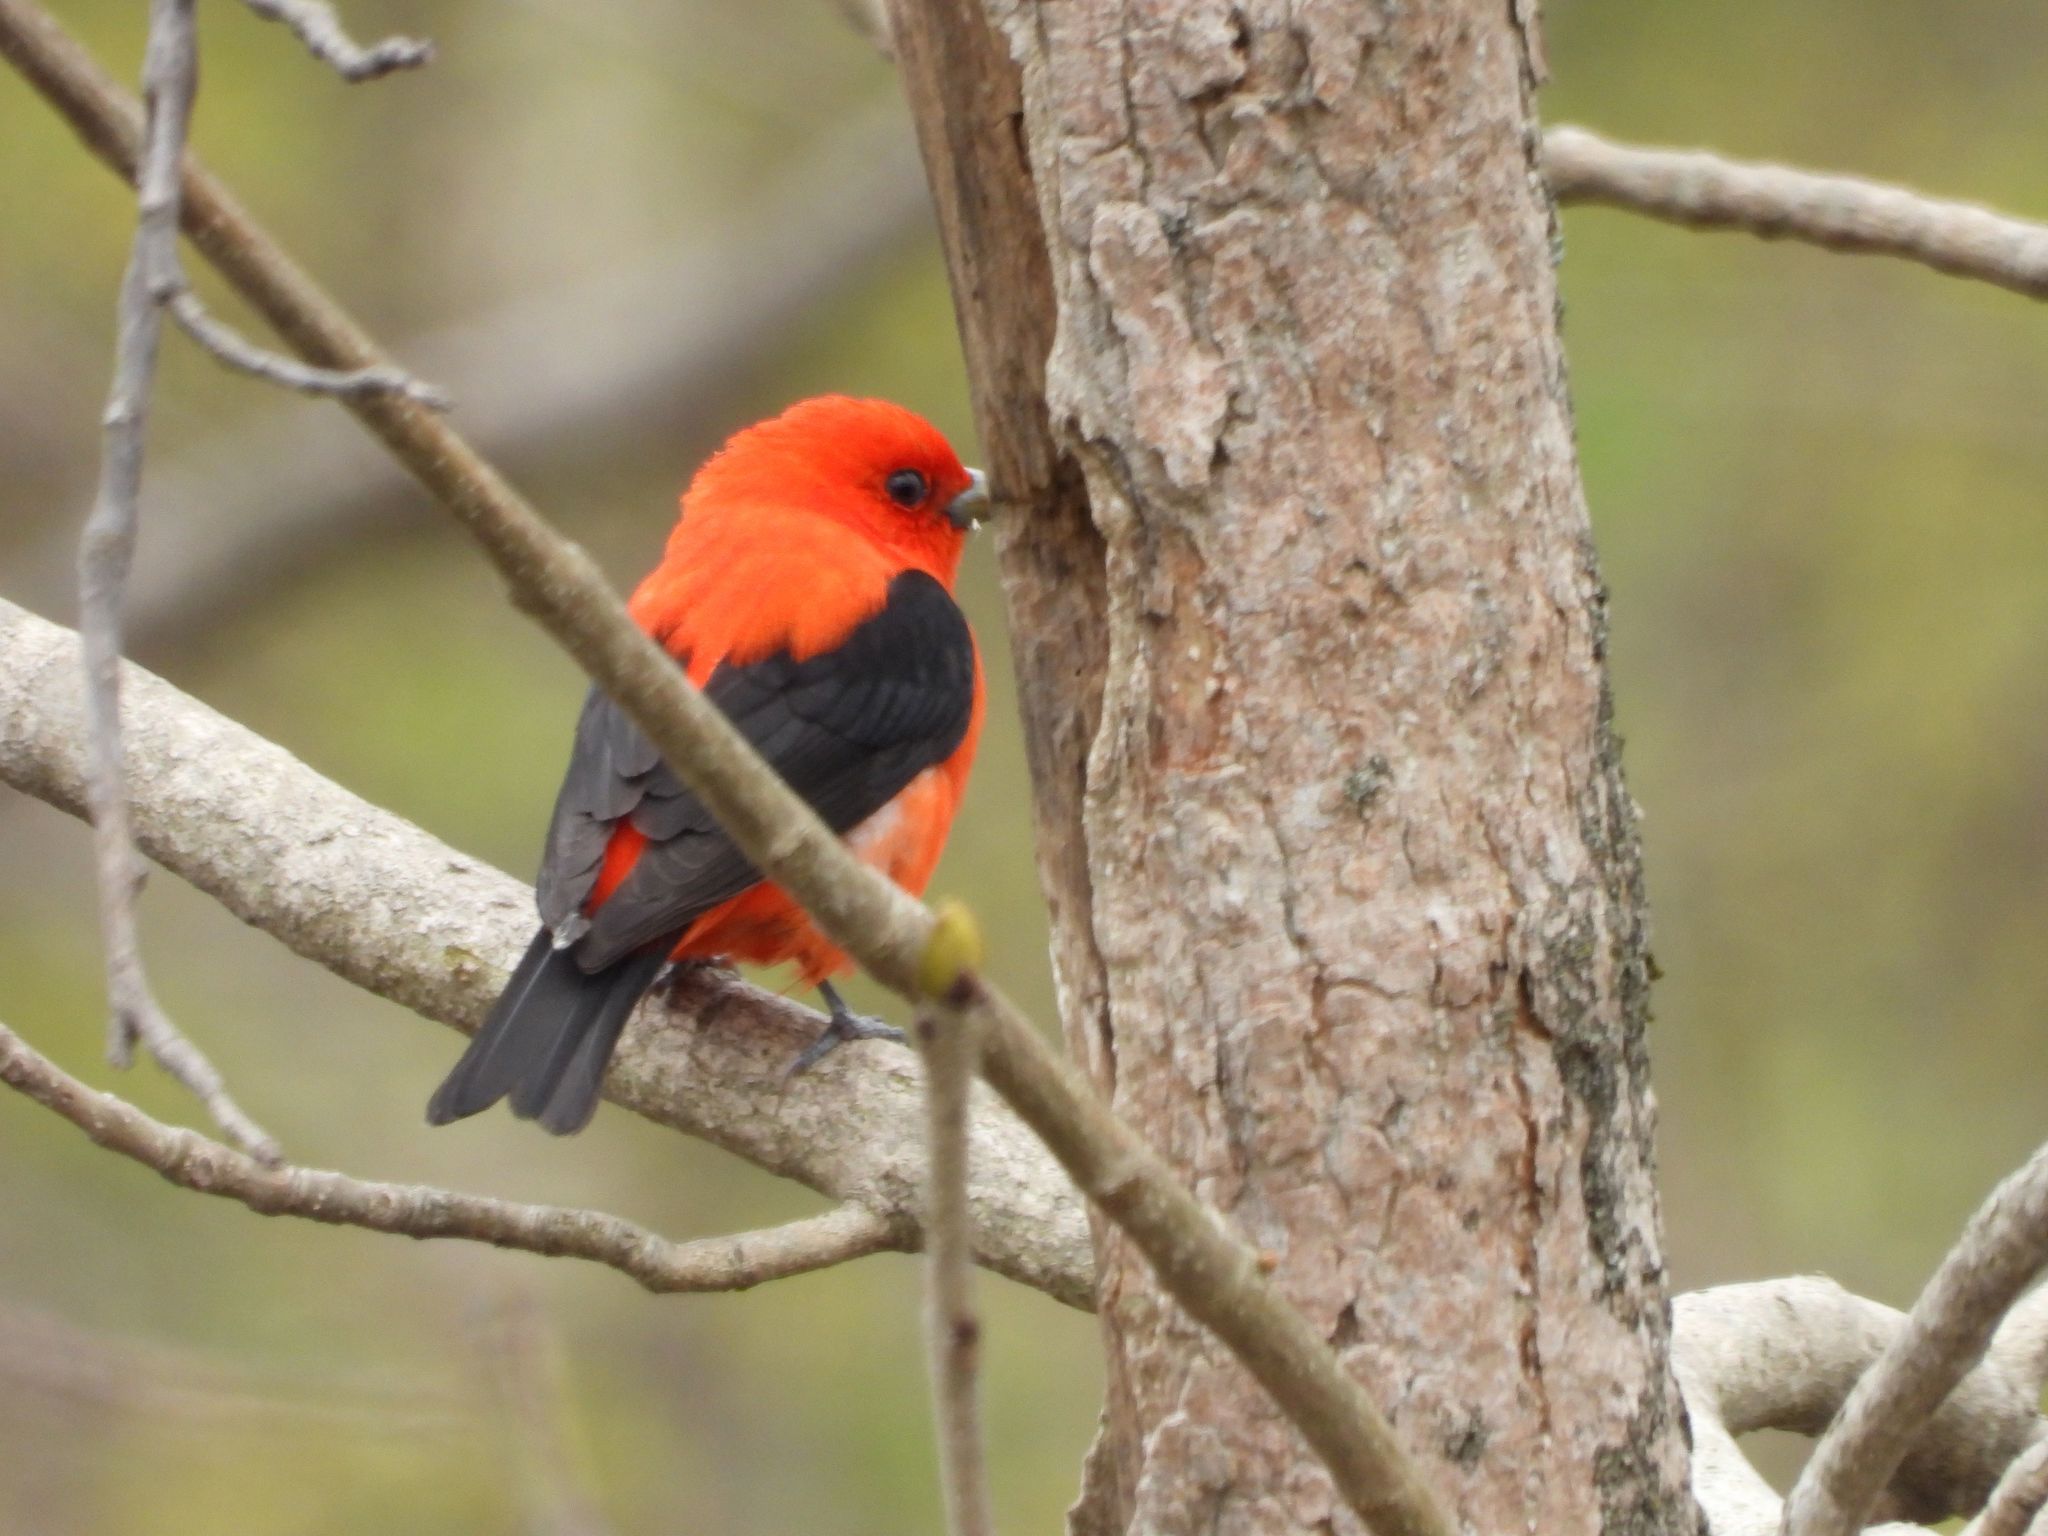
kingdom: Animalia
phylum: Chordata
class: Aves
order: Passeriformes
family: Cardinalidae
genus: Piranga
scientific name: Piranga olivacea
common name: Scarlet tanager
